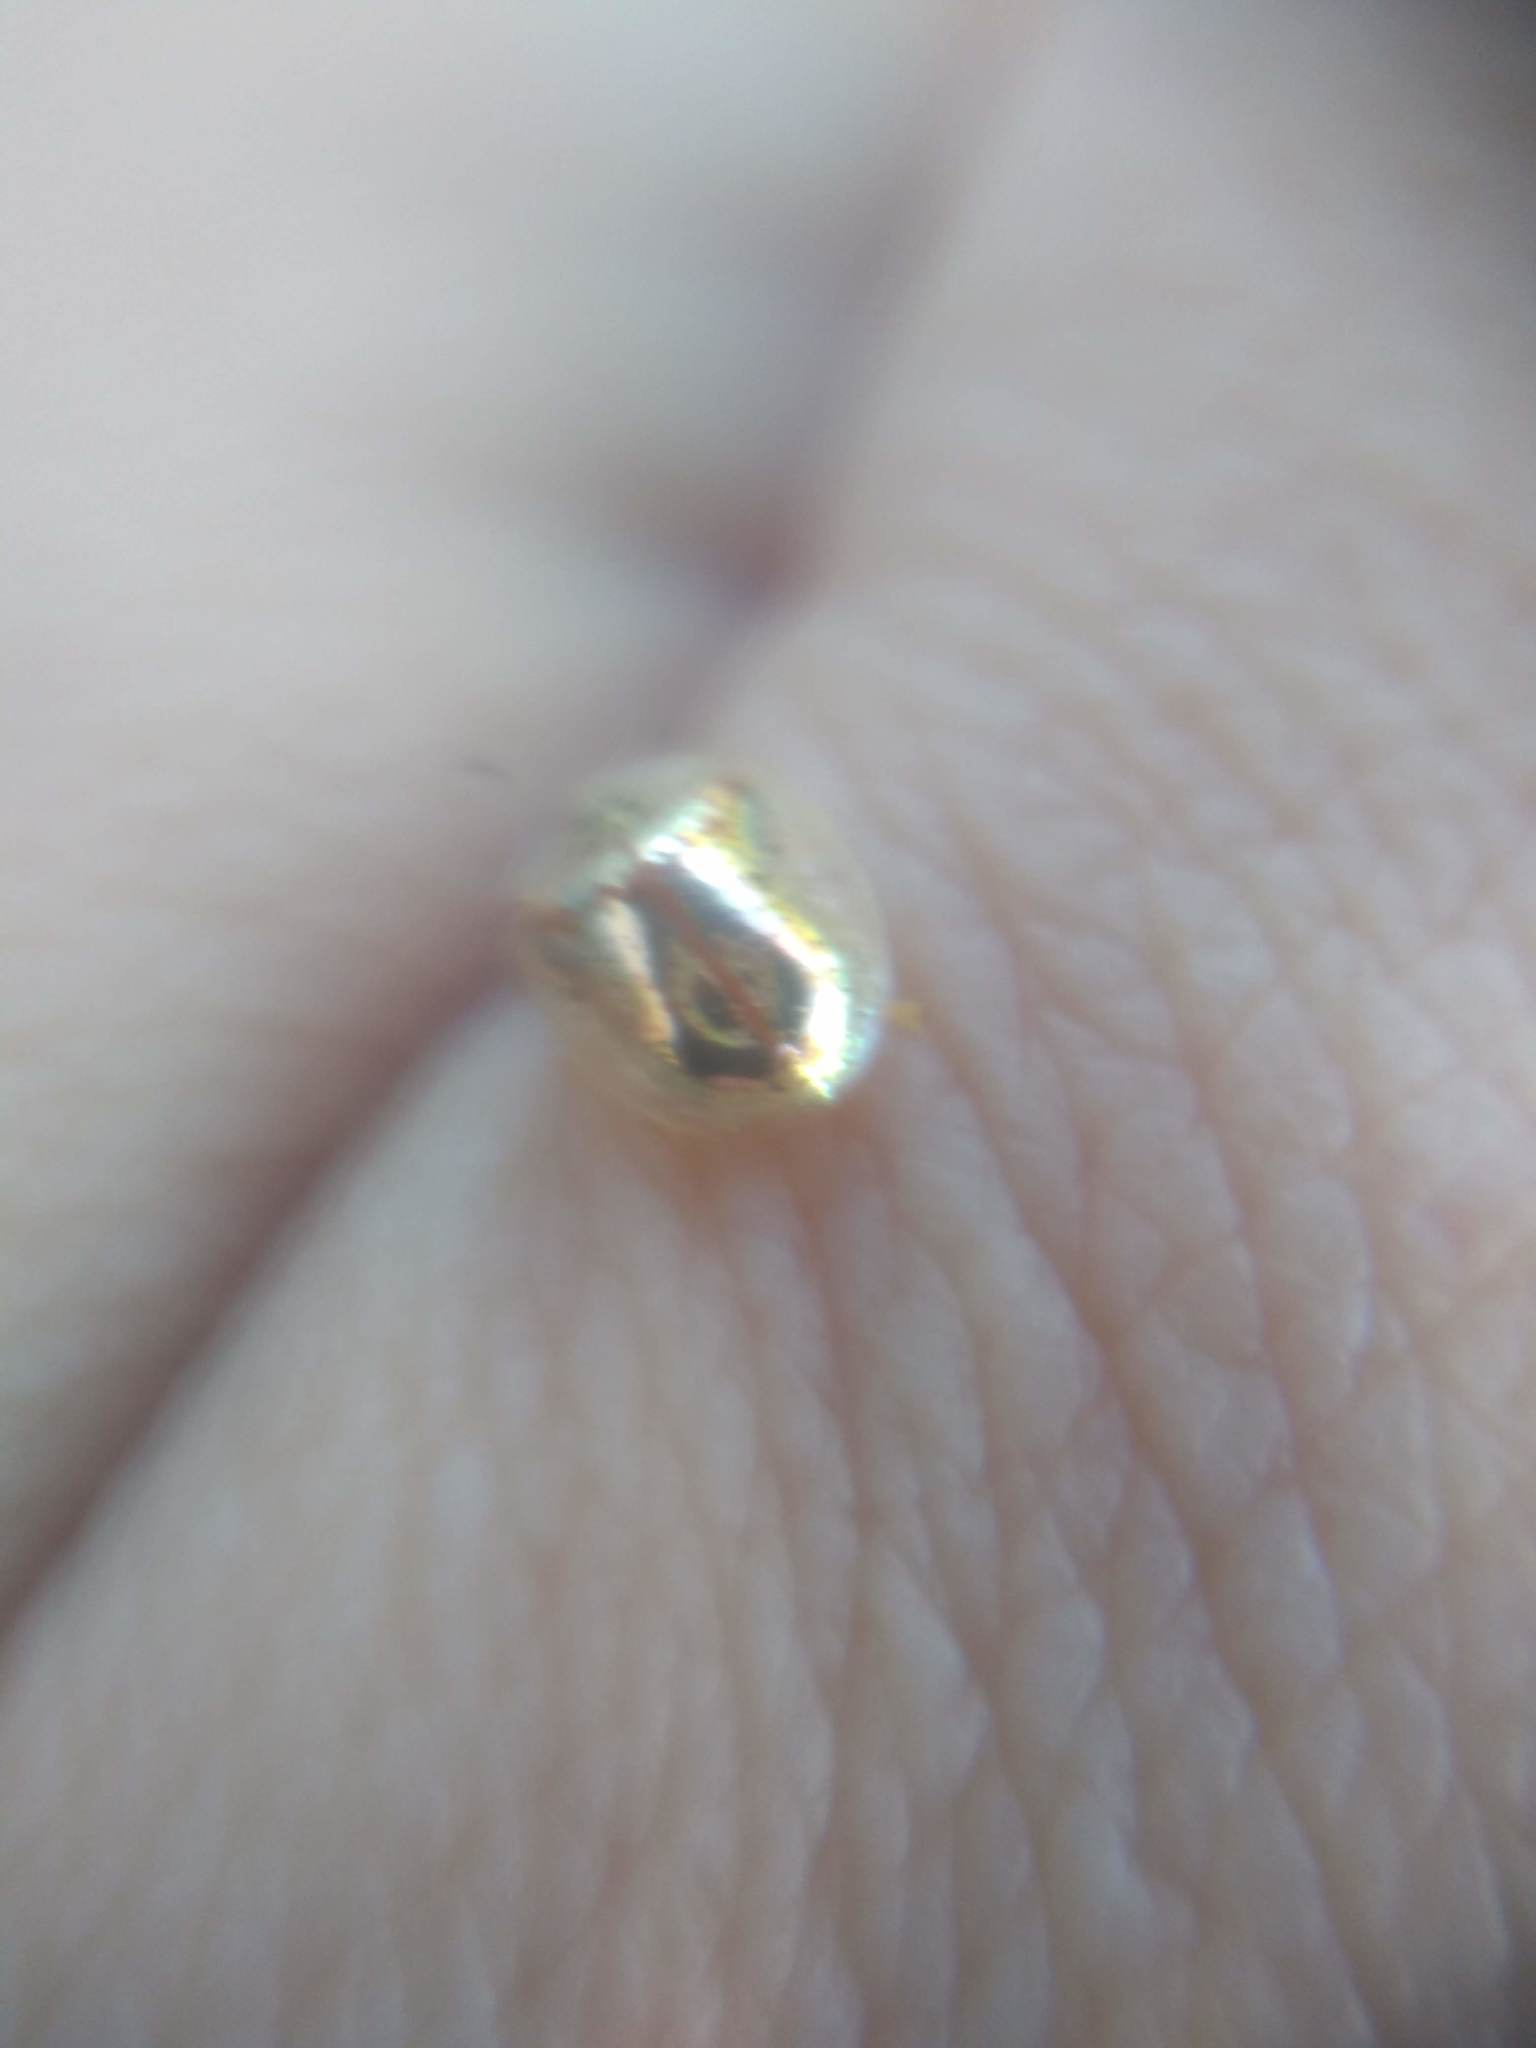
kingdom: Animalia
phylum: Arthropoda
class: Insecta
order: Coleoptera
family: Chrysomelidae
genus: Charidotella
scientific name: Charidotella sexpunctata
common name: Golden tortoise beetle
